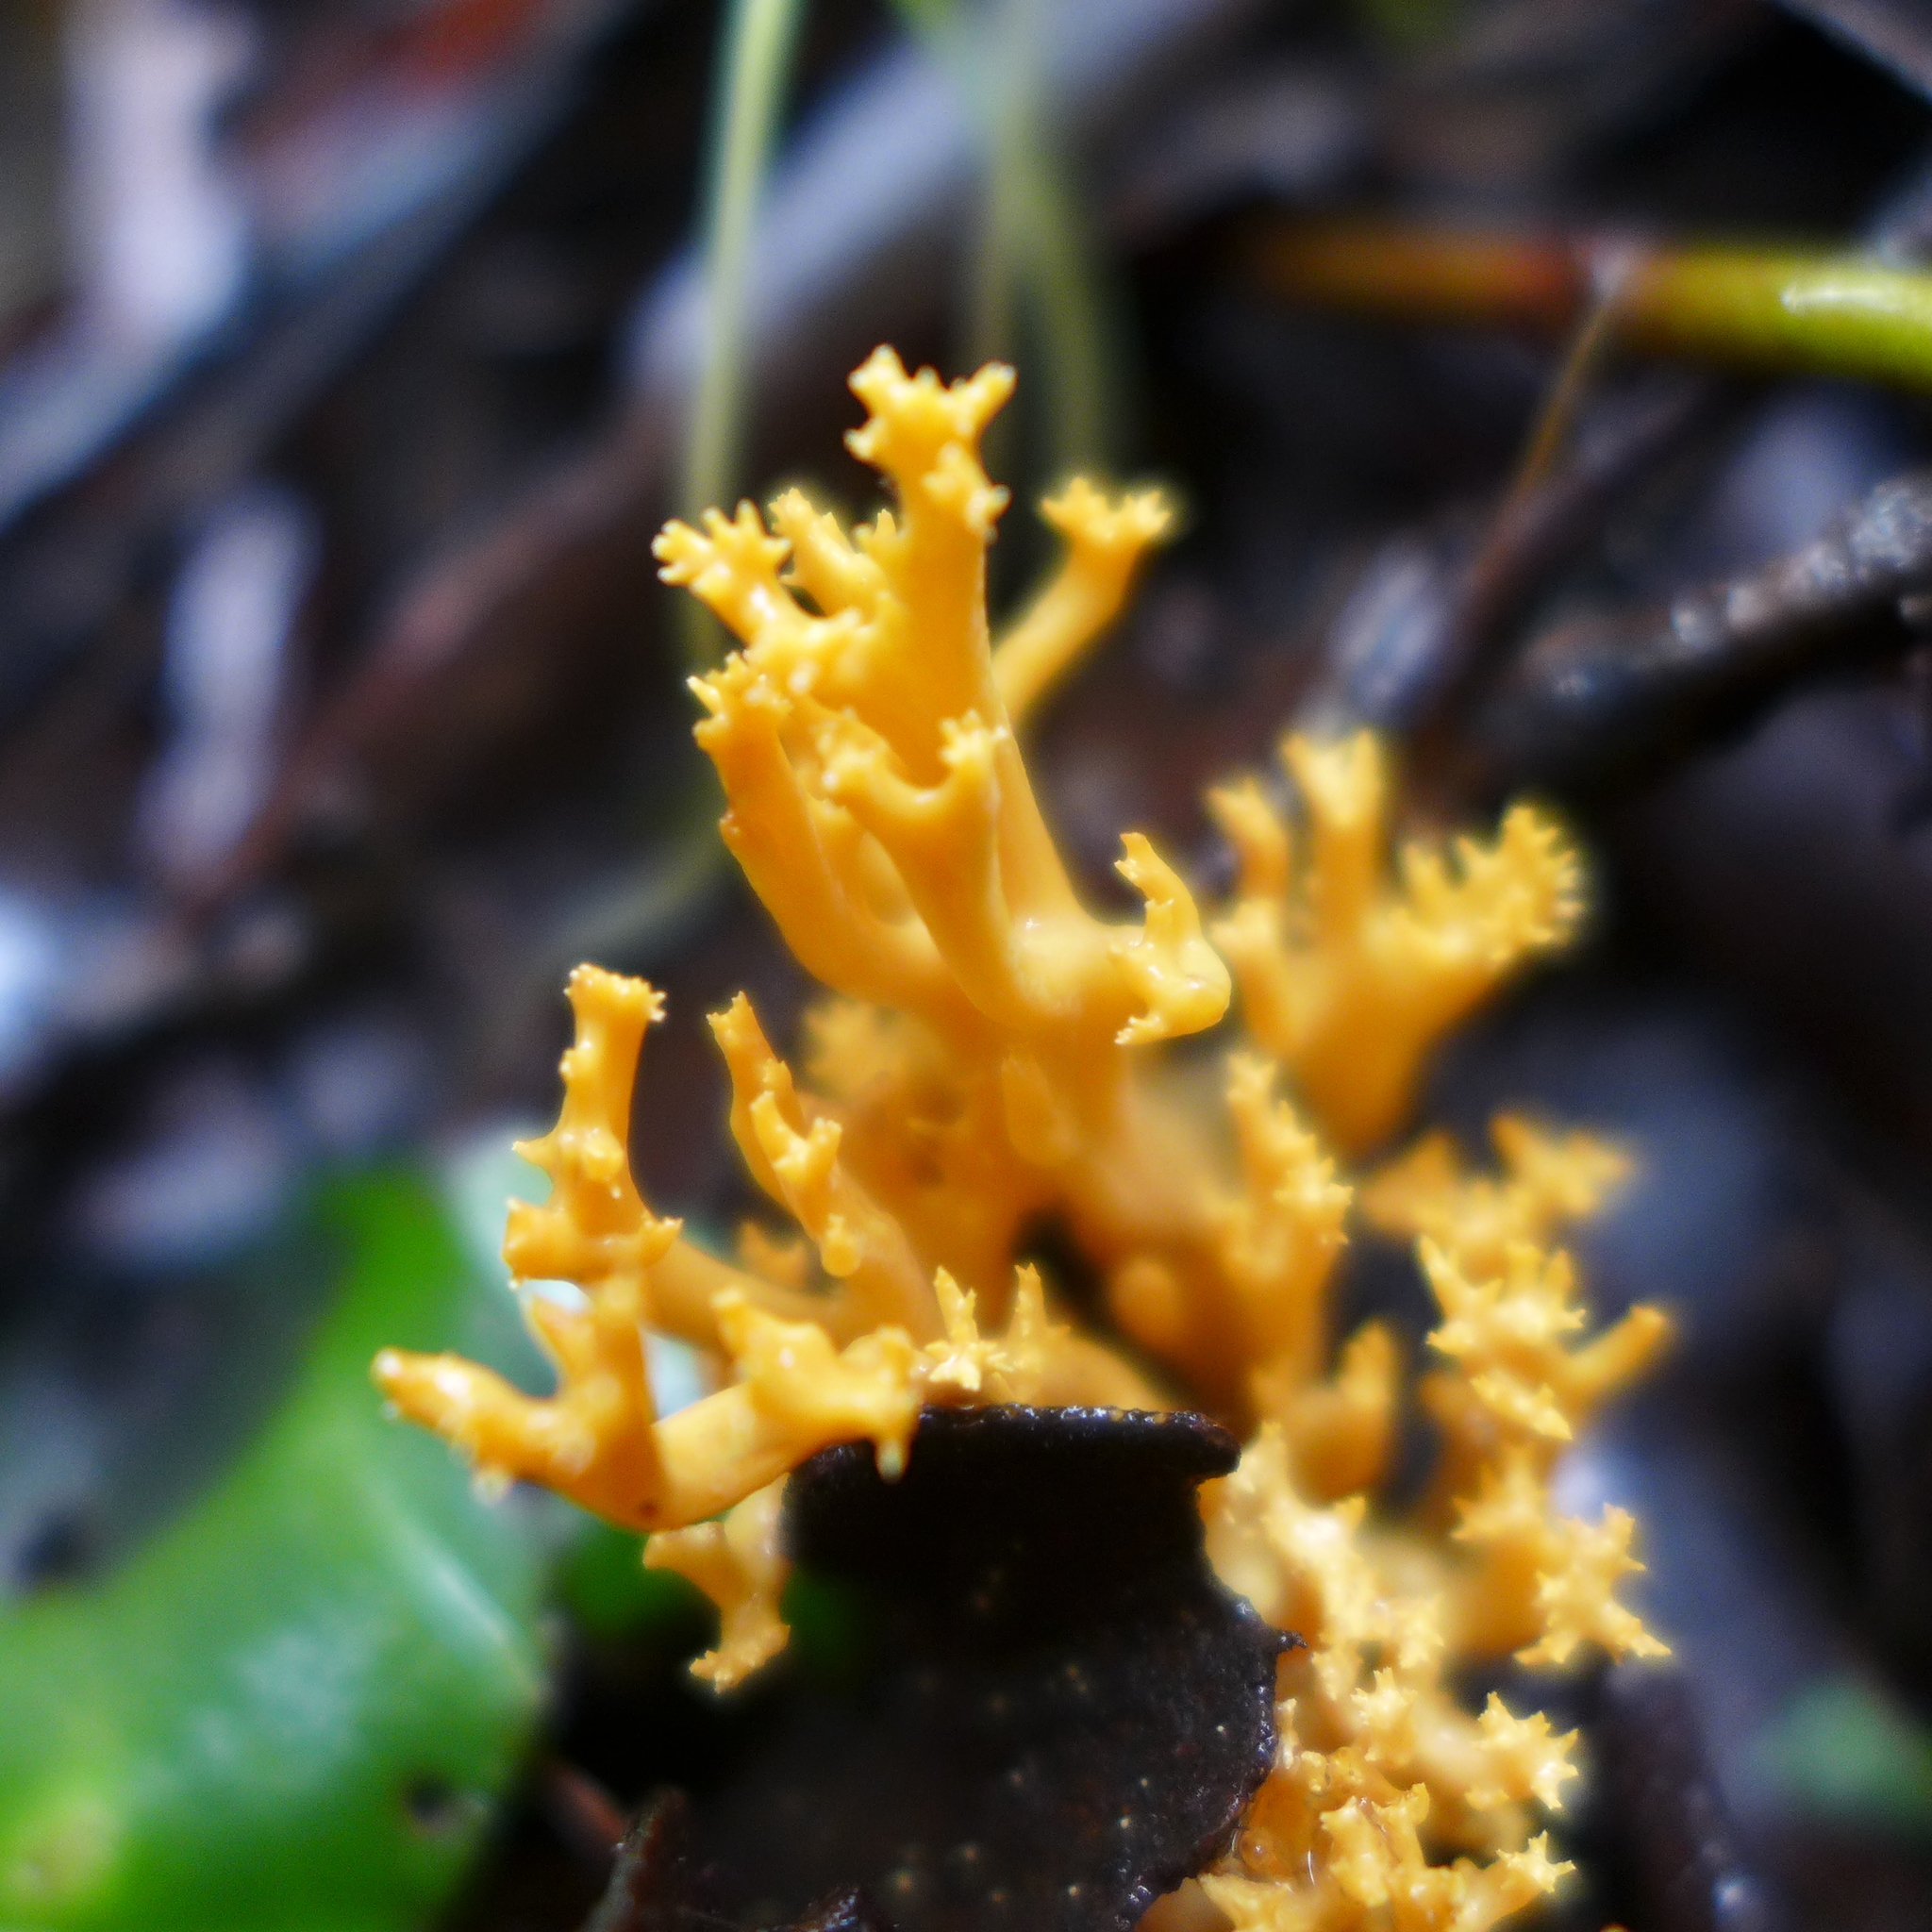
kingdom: Fungi
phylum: Basidiomycota
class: Agaricomycetes
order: Gomphales
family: Gomphaceae
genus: Phaeoclavulina
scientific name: Phaeoclavulina myceliosa
